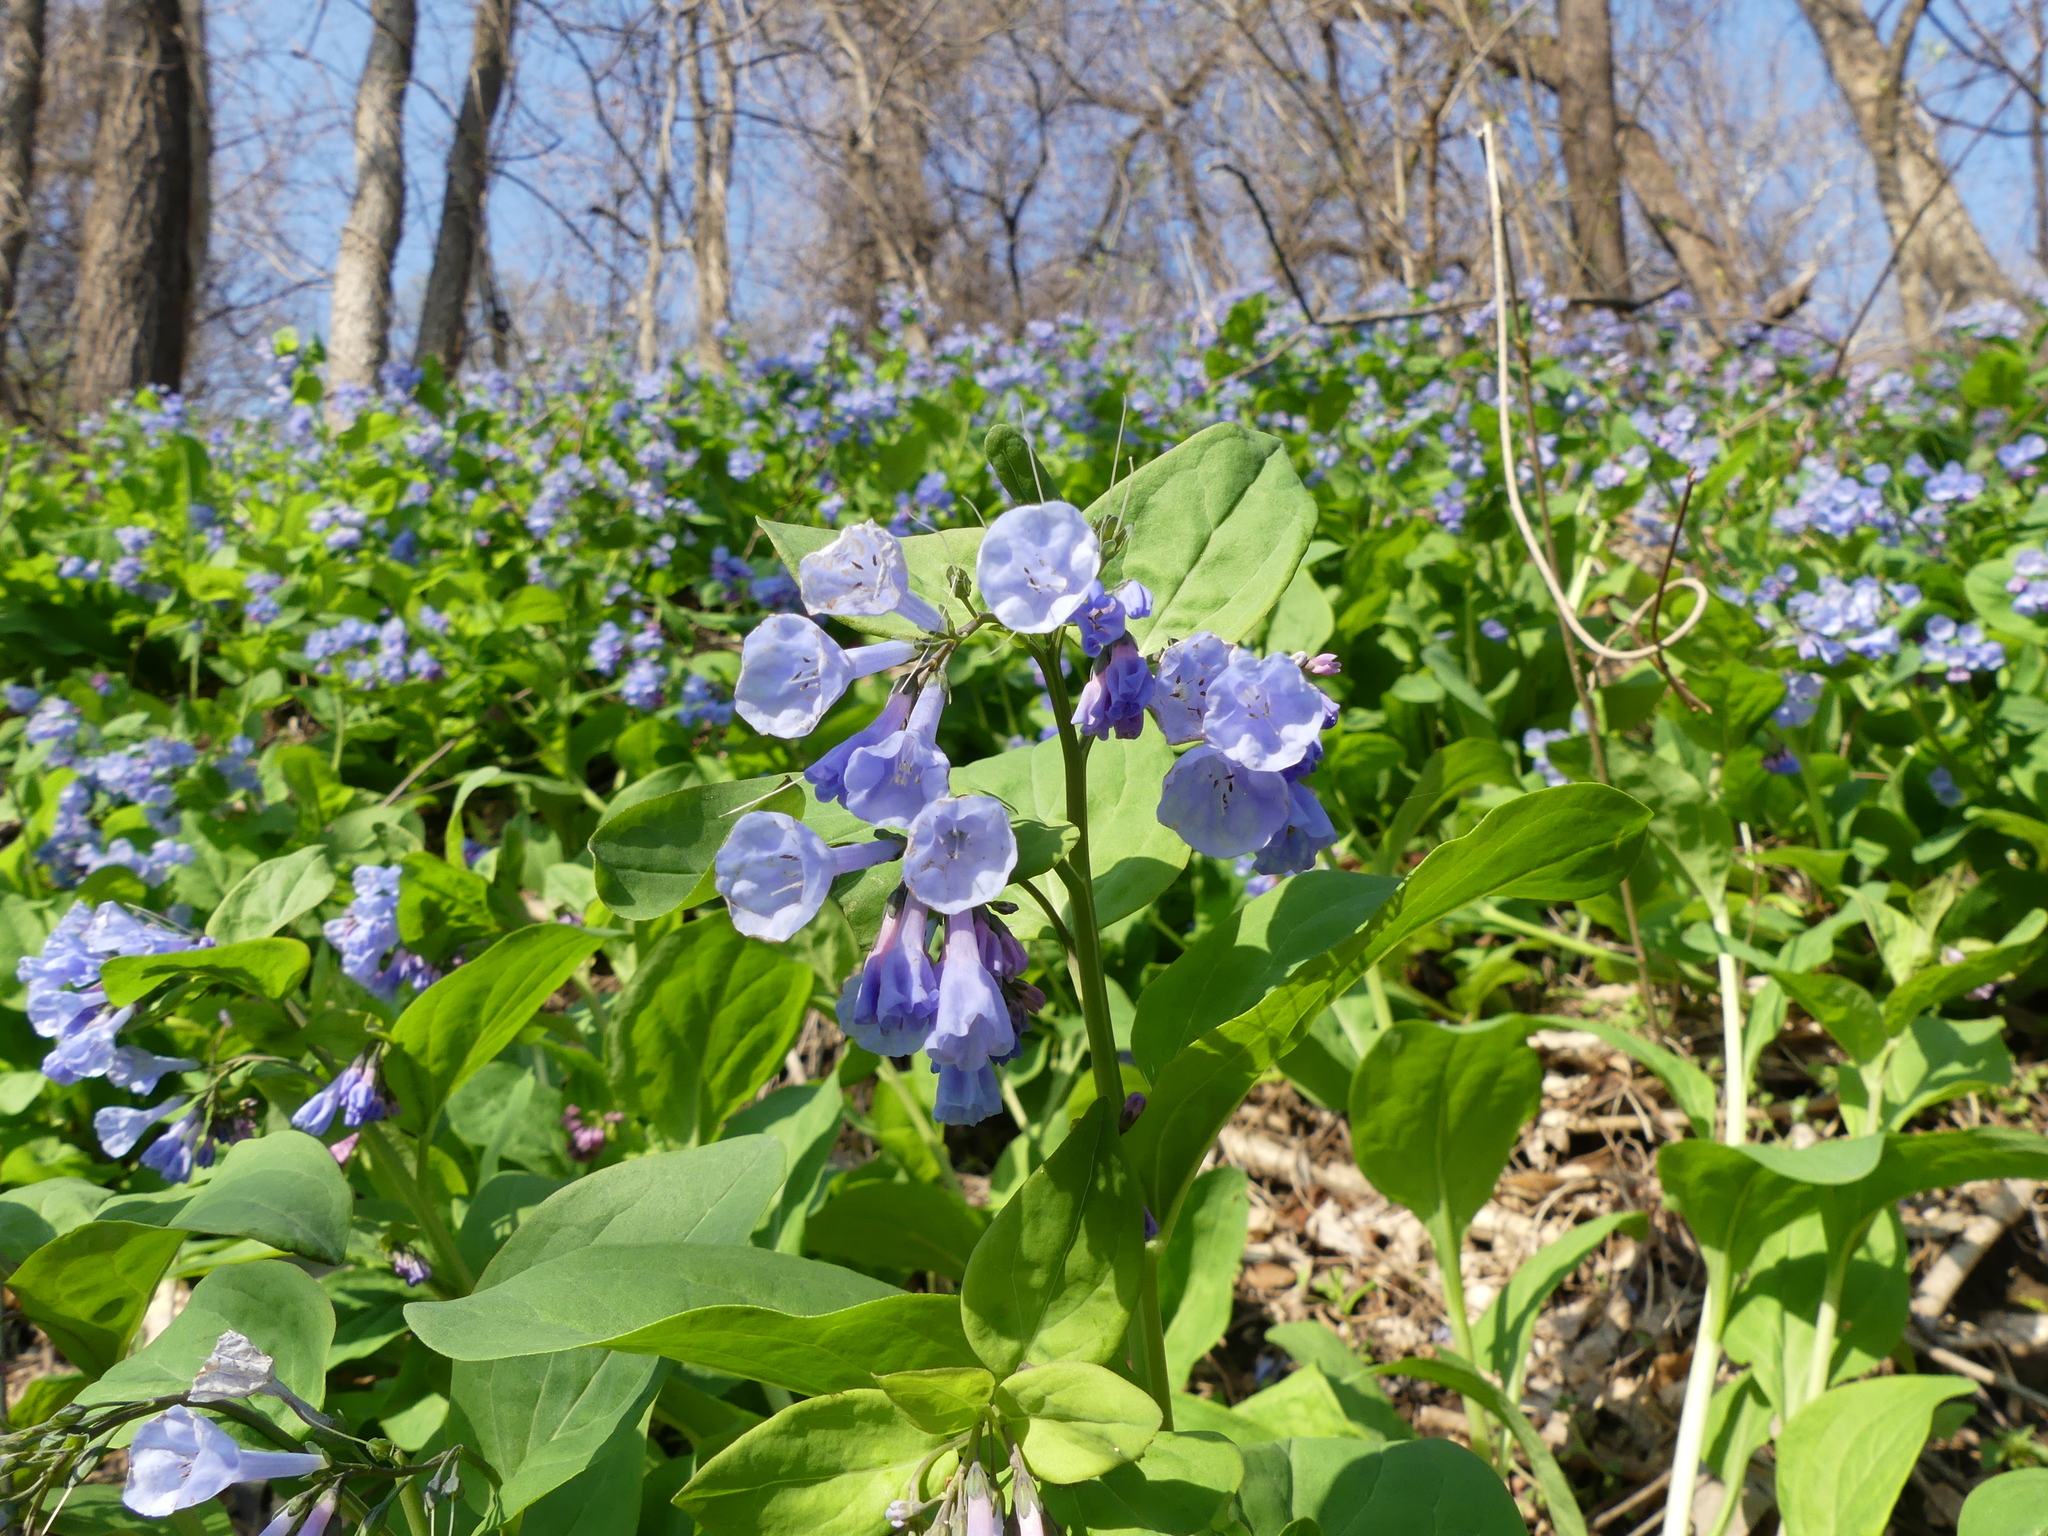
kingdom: Plantae
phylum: Tracheophyta
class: Magnoliopsida
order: Boraginales
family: Boraginaceae
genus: Mertensia
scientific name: Mertensia virginica
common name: Virginia bluebells
